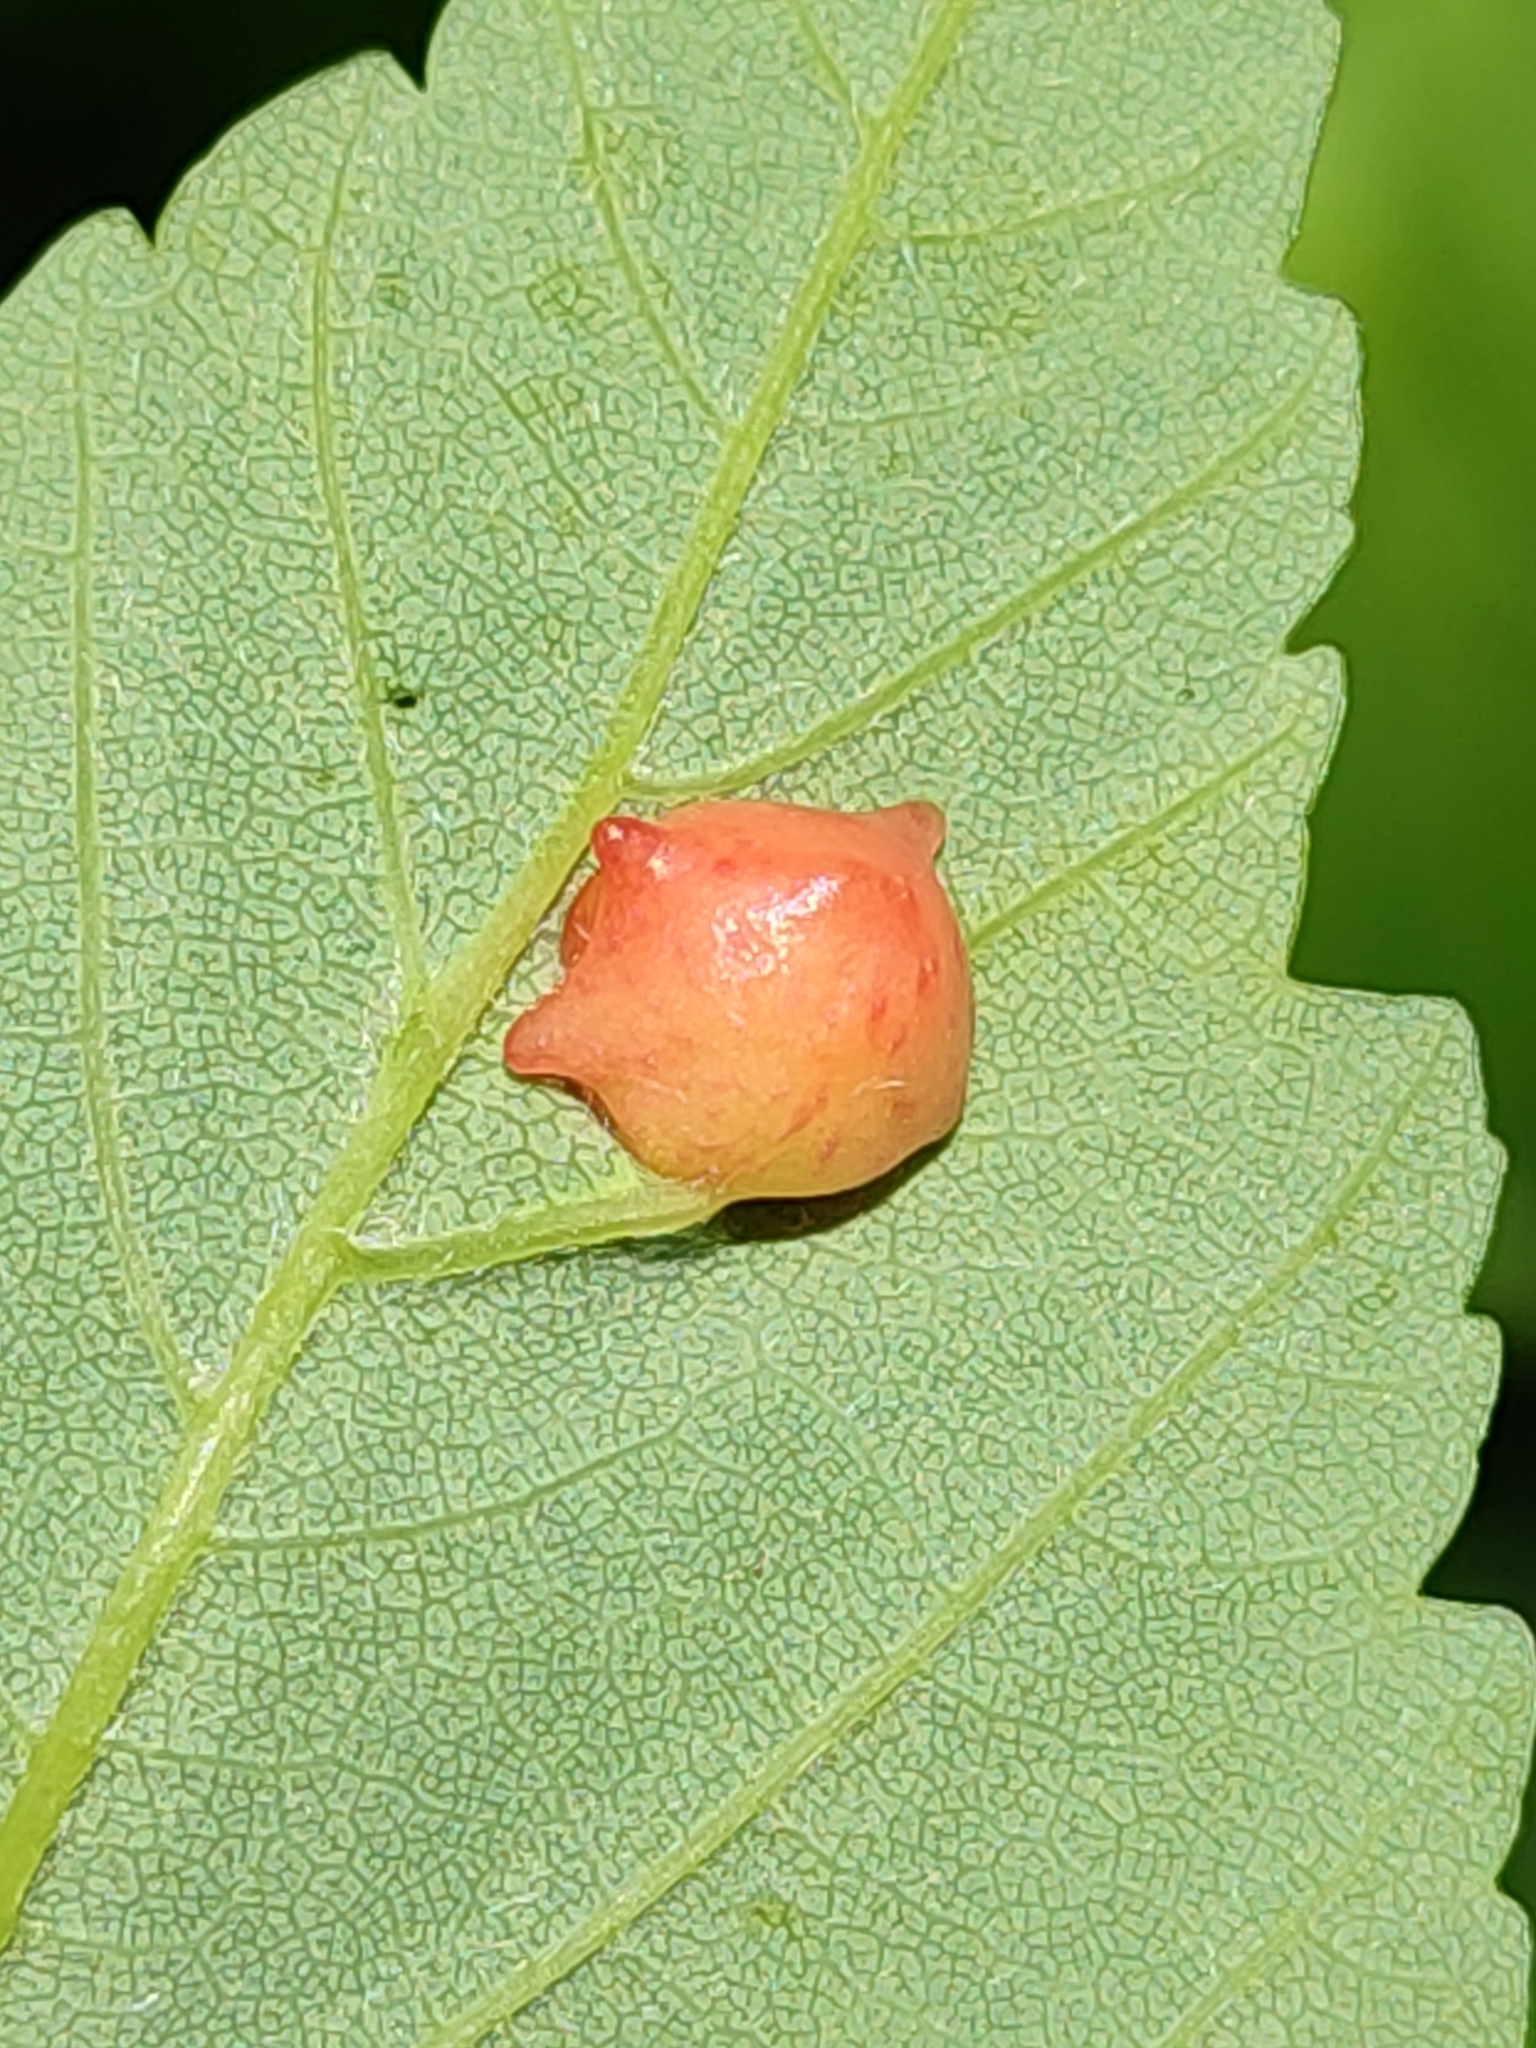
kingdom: Animalia
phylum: Arthropoda
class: Insecta
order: Hymenoptera
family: Cynipidae
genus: Pediaspis
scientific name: Pediaspis aceris
